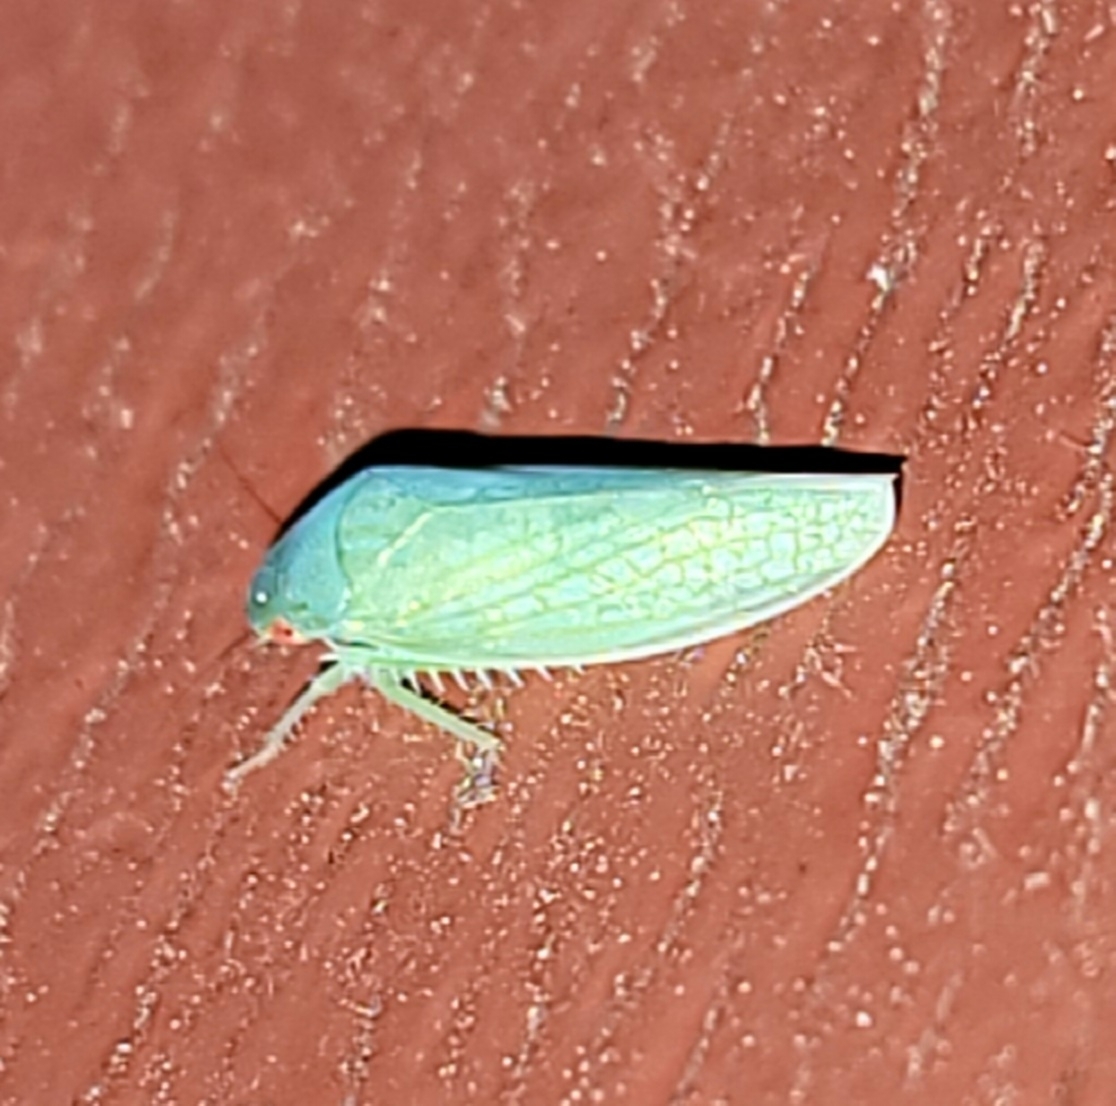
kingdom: Animalia
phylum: Arthropoda
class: Insecta
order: Hemiptera
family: Cicadellidae
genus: Gyponana
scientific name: Gyponana octolineata
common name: Eight-lined leafhopper
